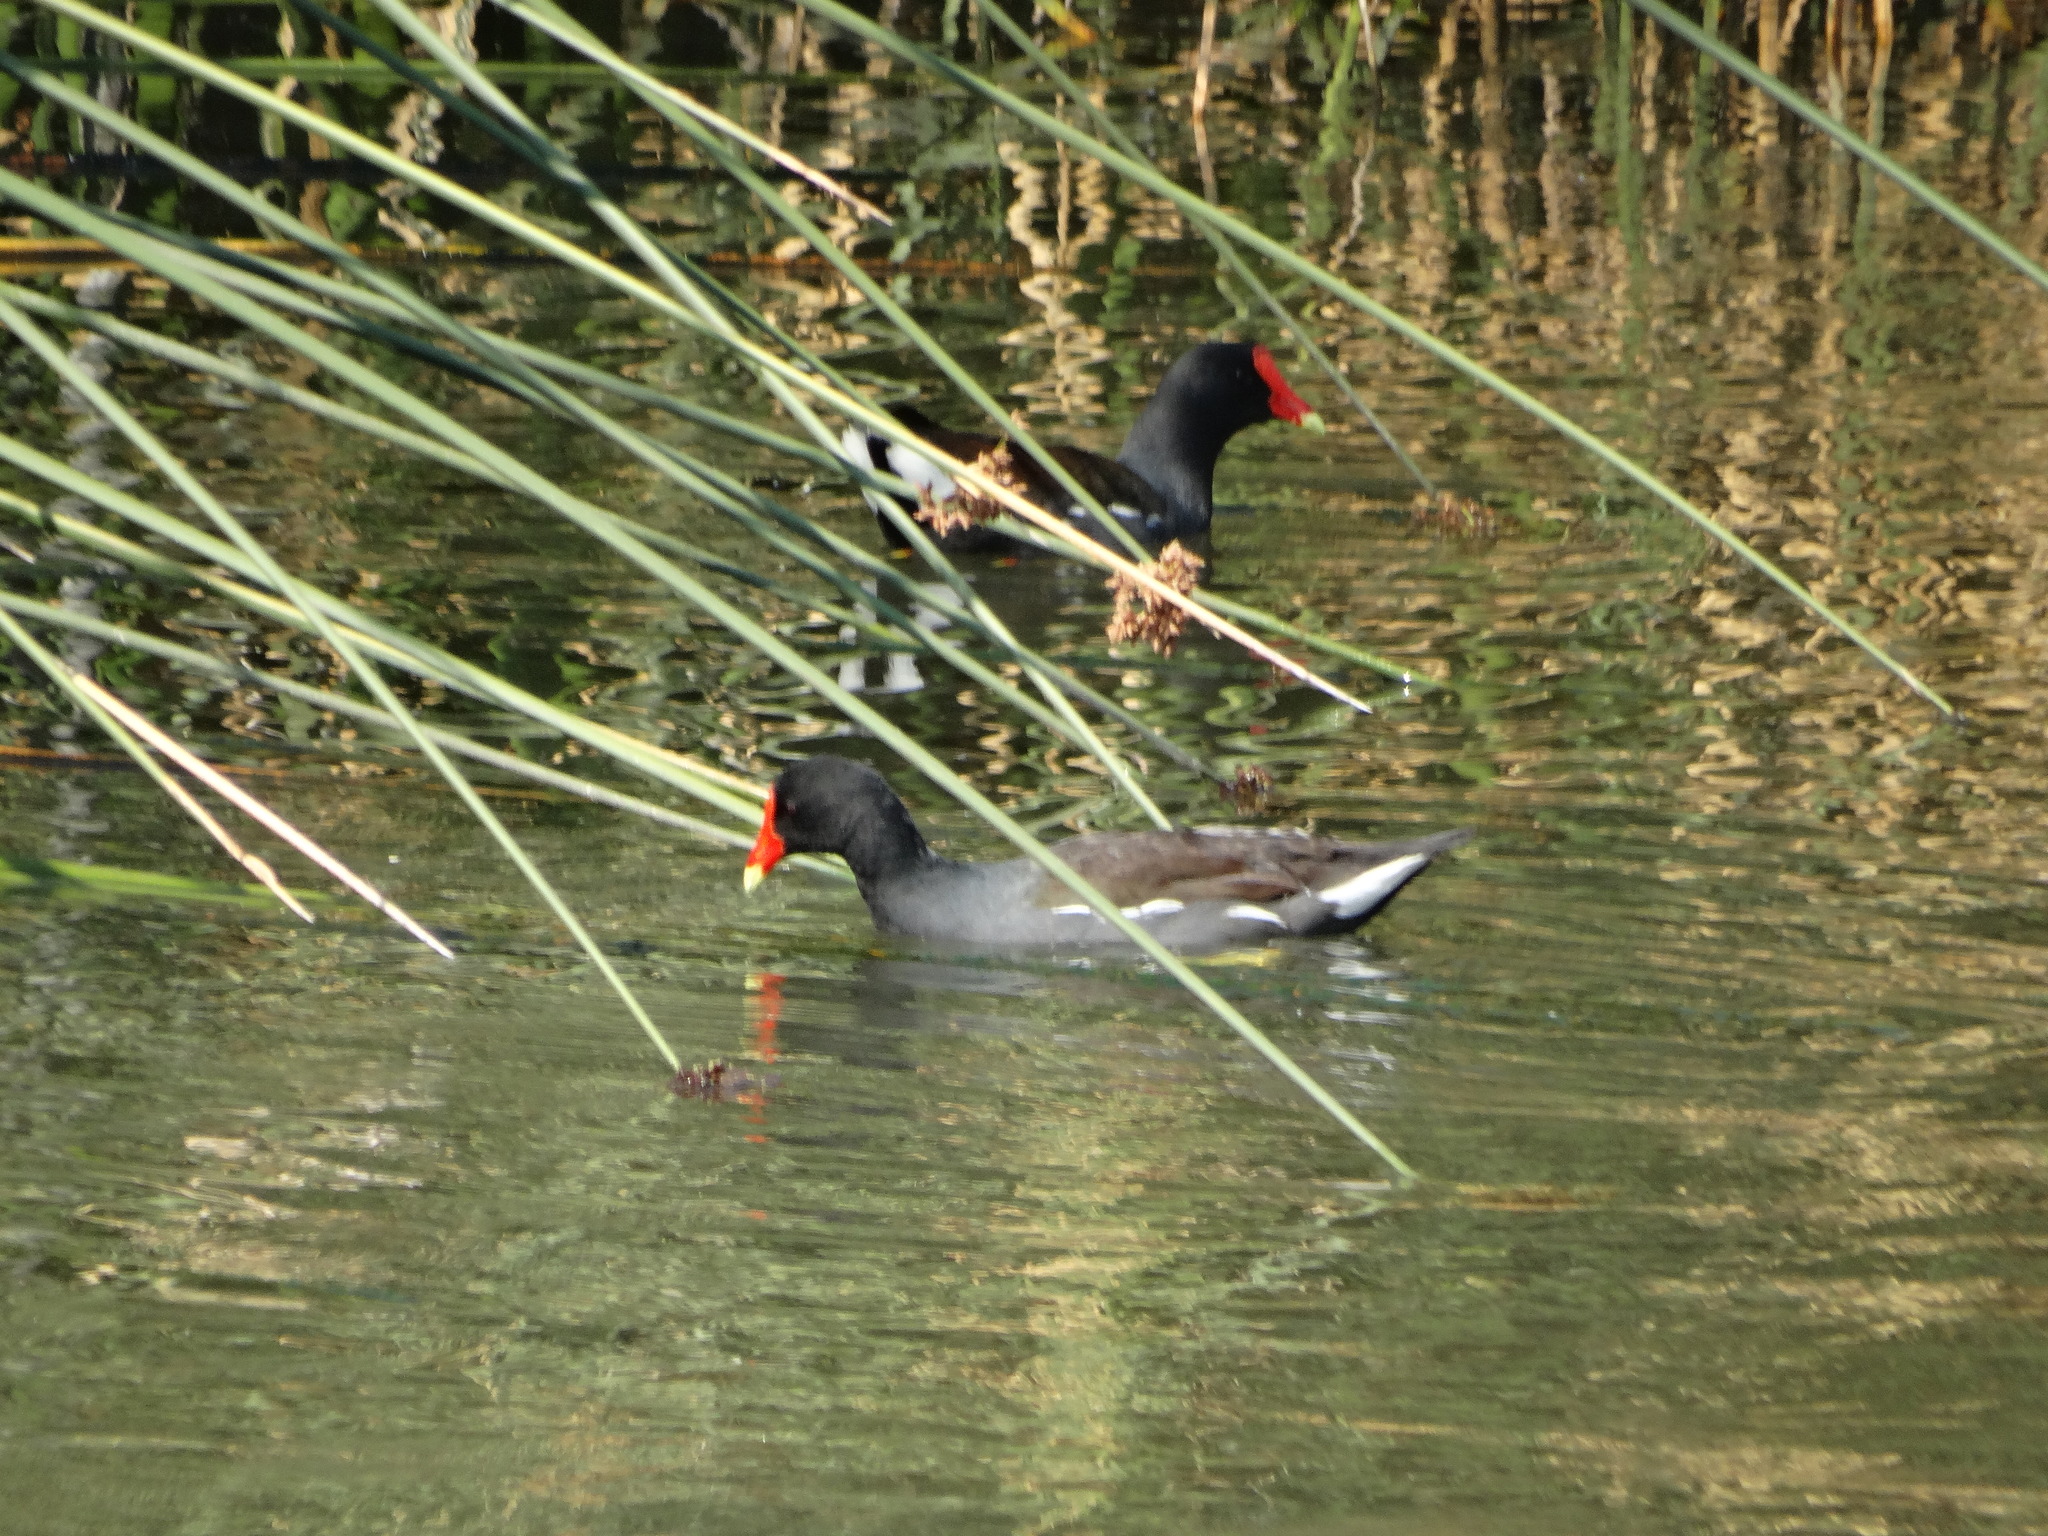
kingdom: Animalia
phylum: Chordata
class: Aves
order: Gruiformes
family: Rallidae
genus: Gallinula
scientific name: Gallinula chloropus
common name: Common moorhen
